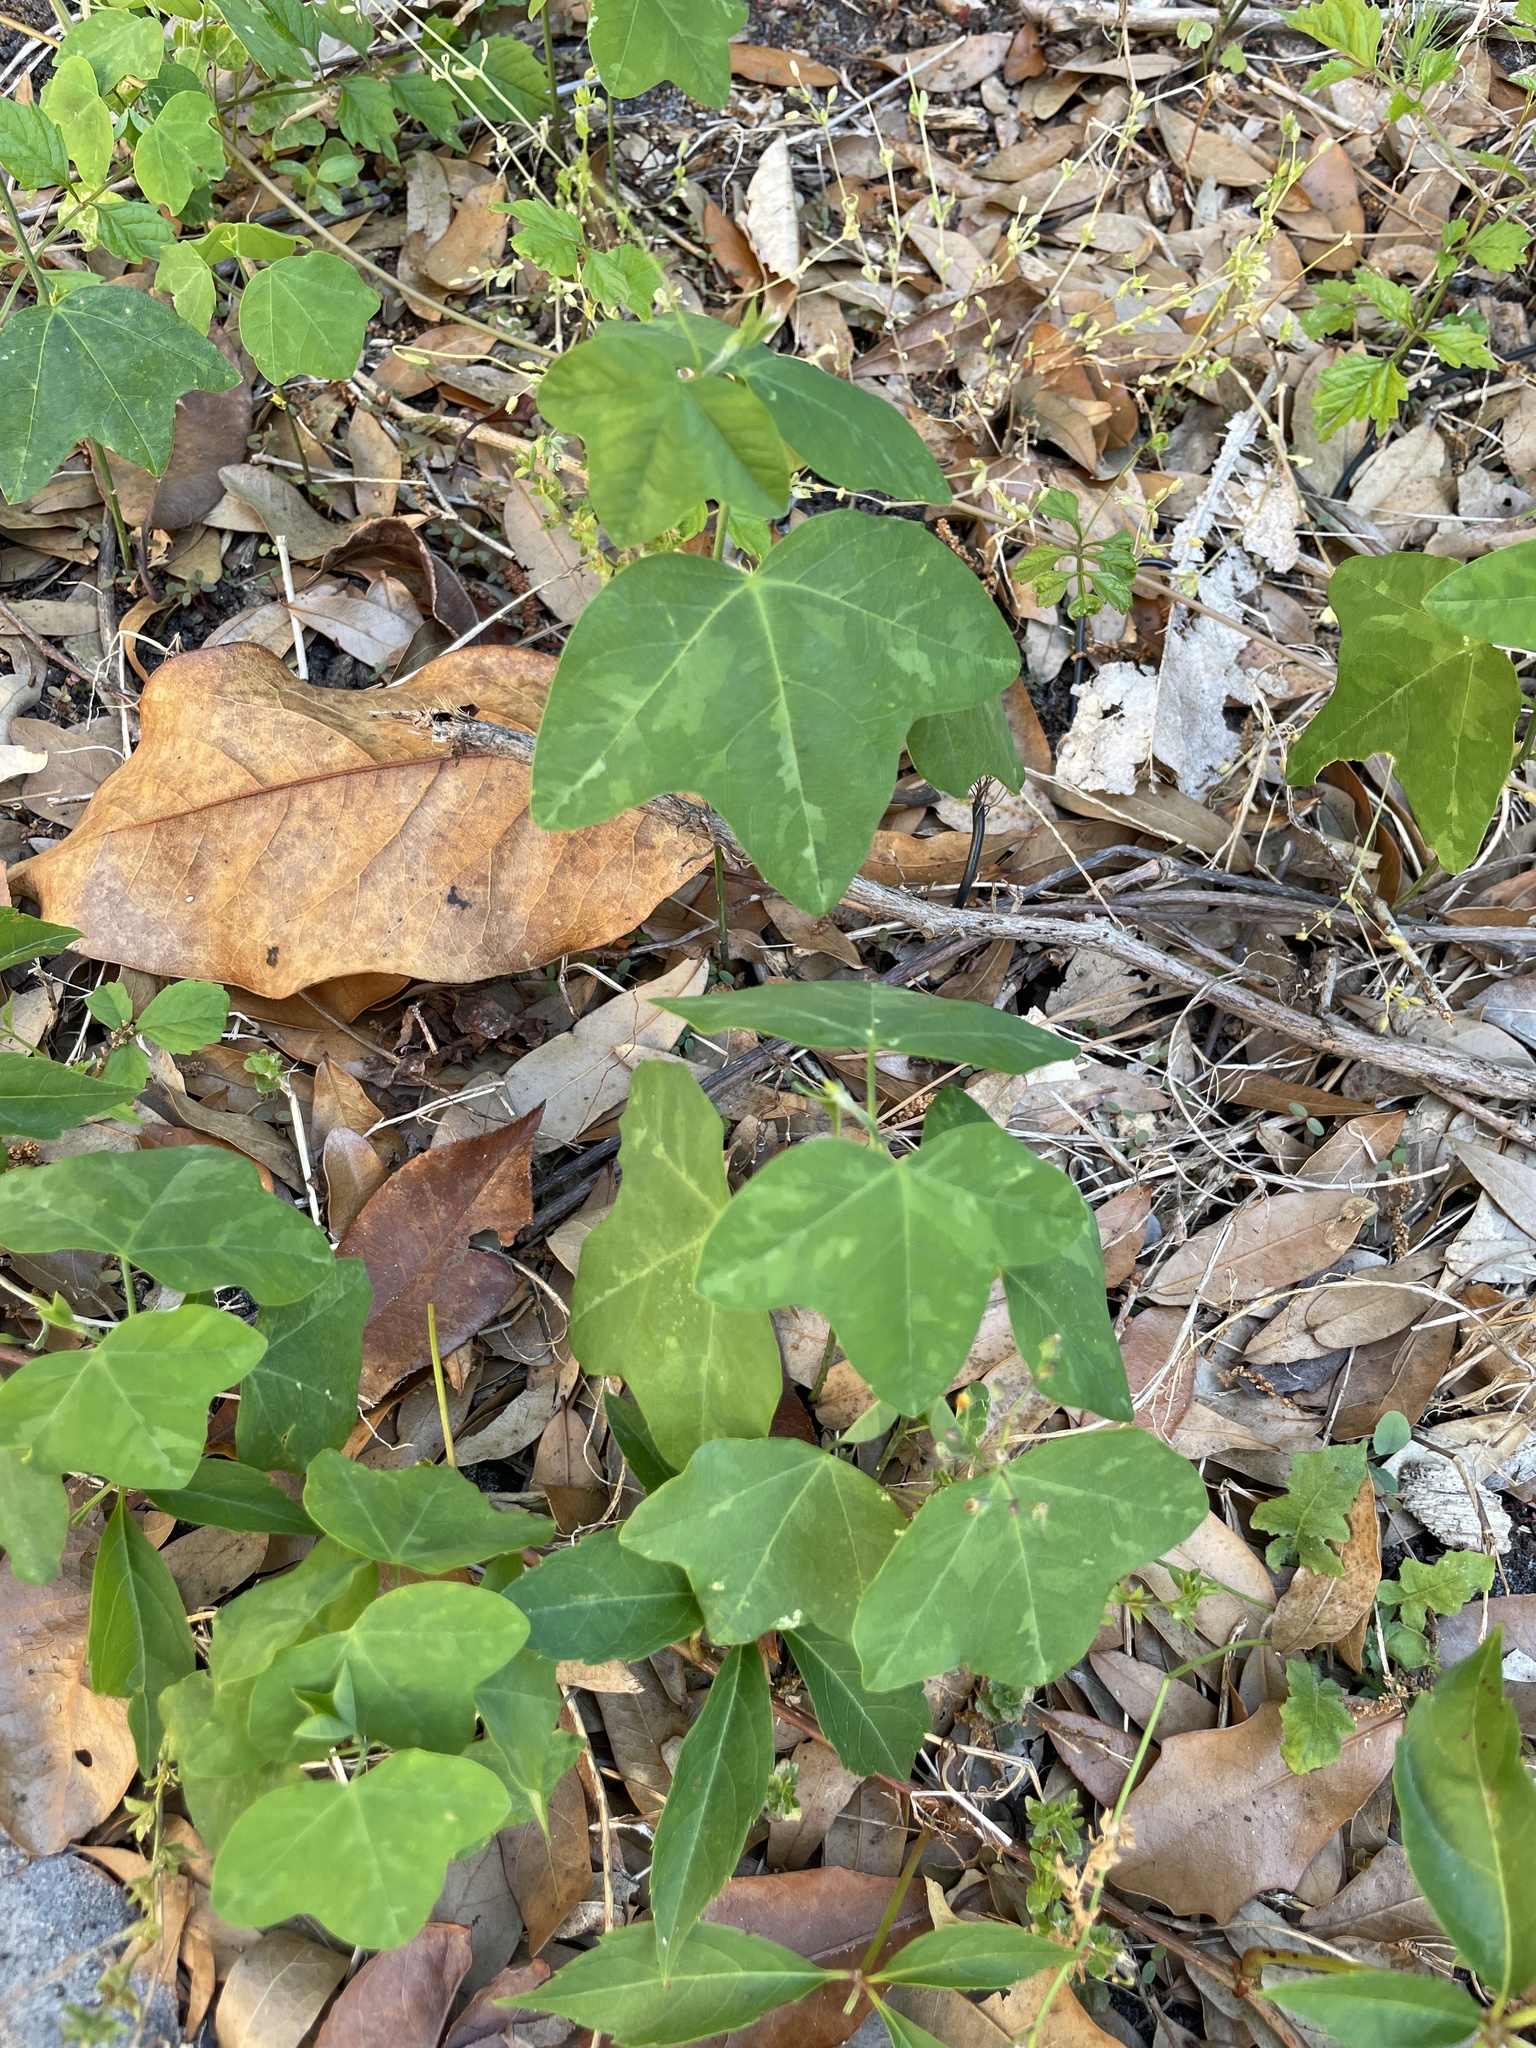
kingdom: Plantae
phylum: Tracheophyta
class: Magnoliopsida
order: Malpighiales
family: Passifloraceae
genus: Passiflora
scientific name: Passiflora lutea
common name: Yellow passionflower
